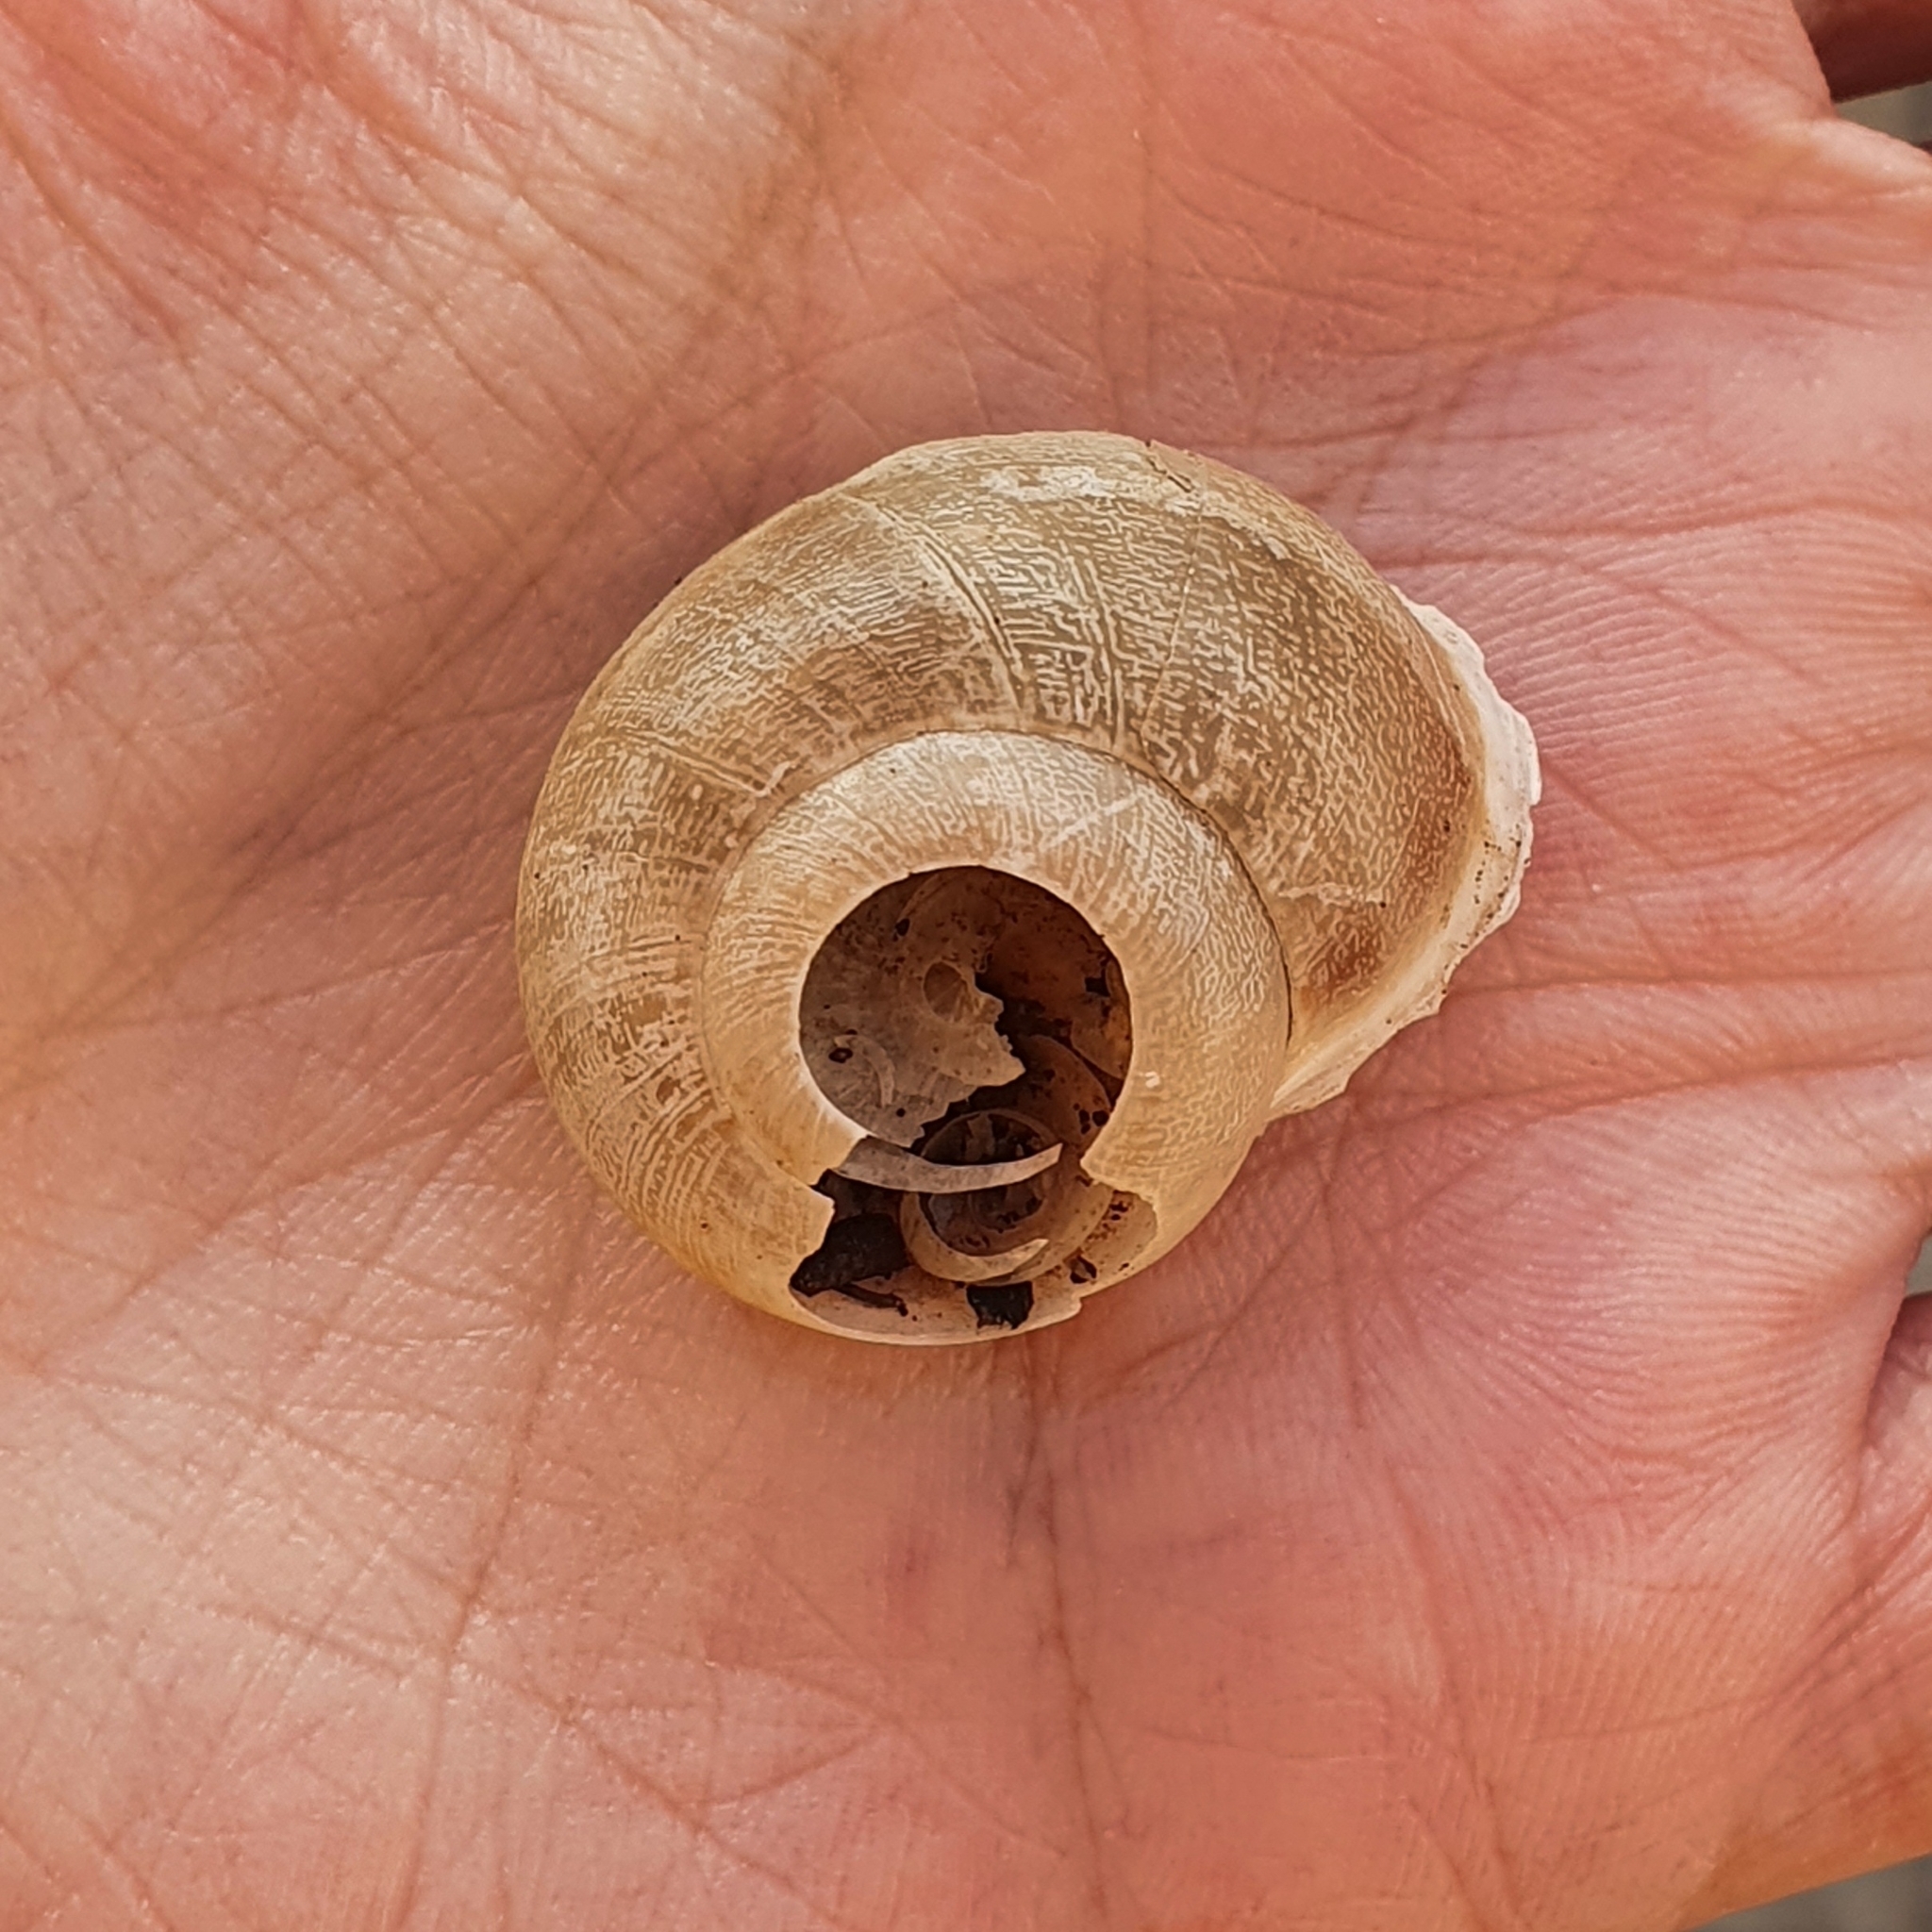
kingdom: Animalia
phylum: Mollusca
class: Gastropoda
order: Stylommatophora
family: Helicidae
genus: Eobania
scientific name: Eobania vermiculata
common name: Chocolateband snail
